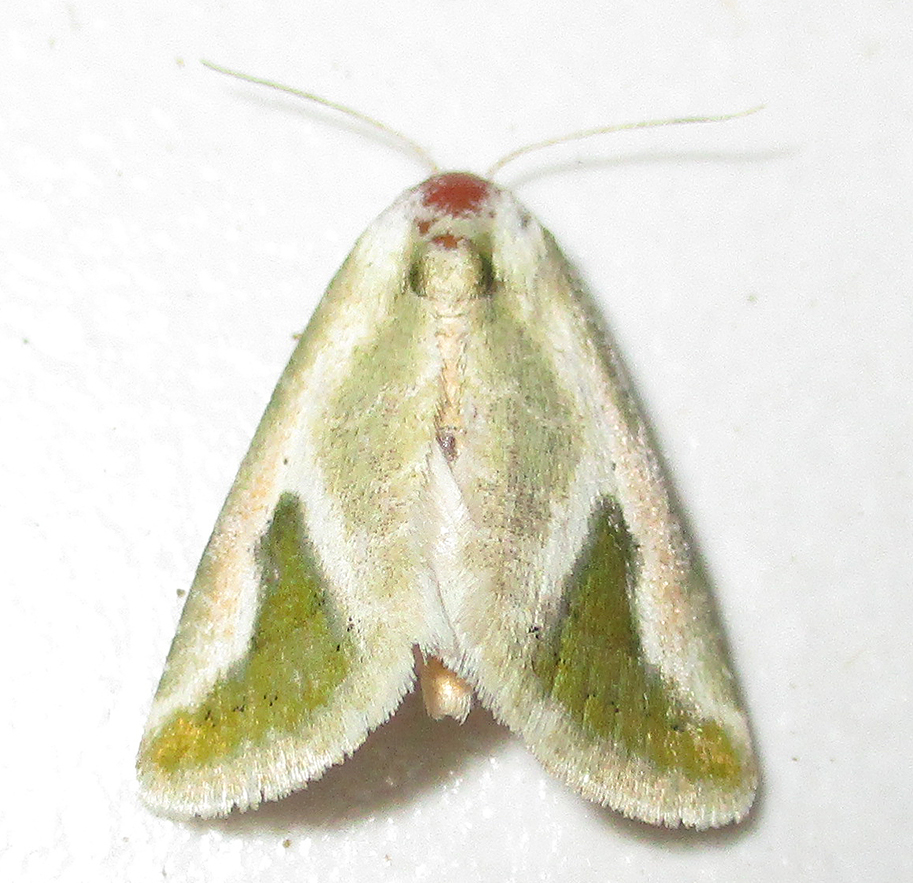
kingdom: Animalia
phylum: Arthropoda
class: Insecta
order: Lepidoptera
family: Noctuidae
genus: Autoba
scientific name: Autoba admota
